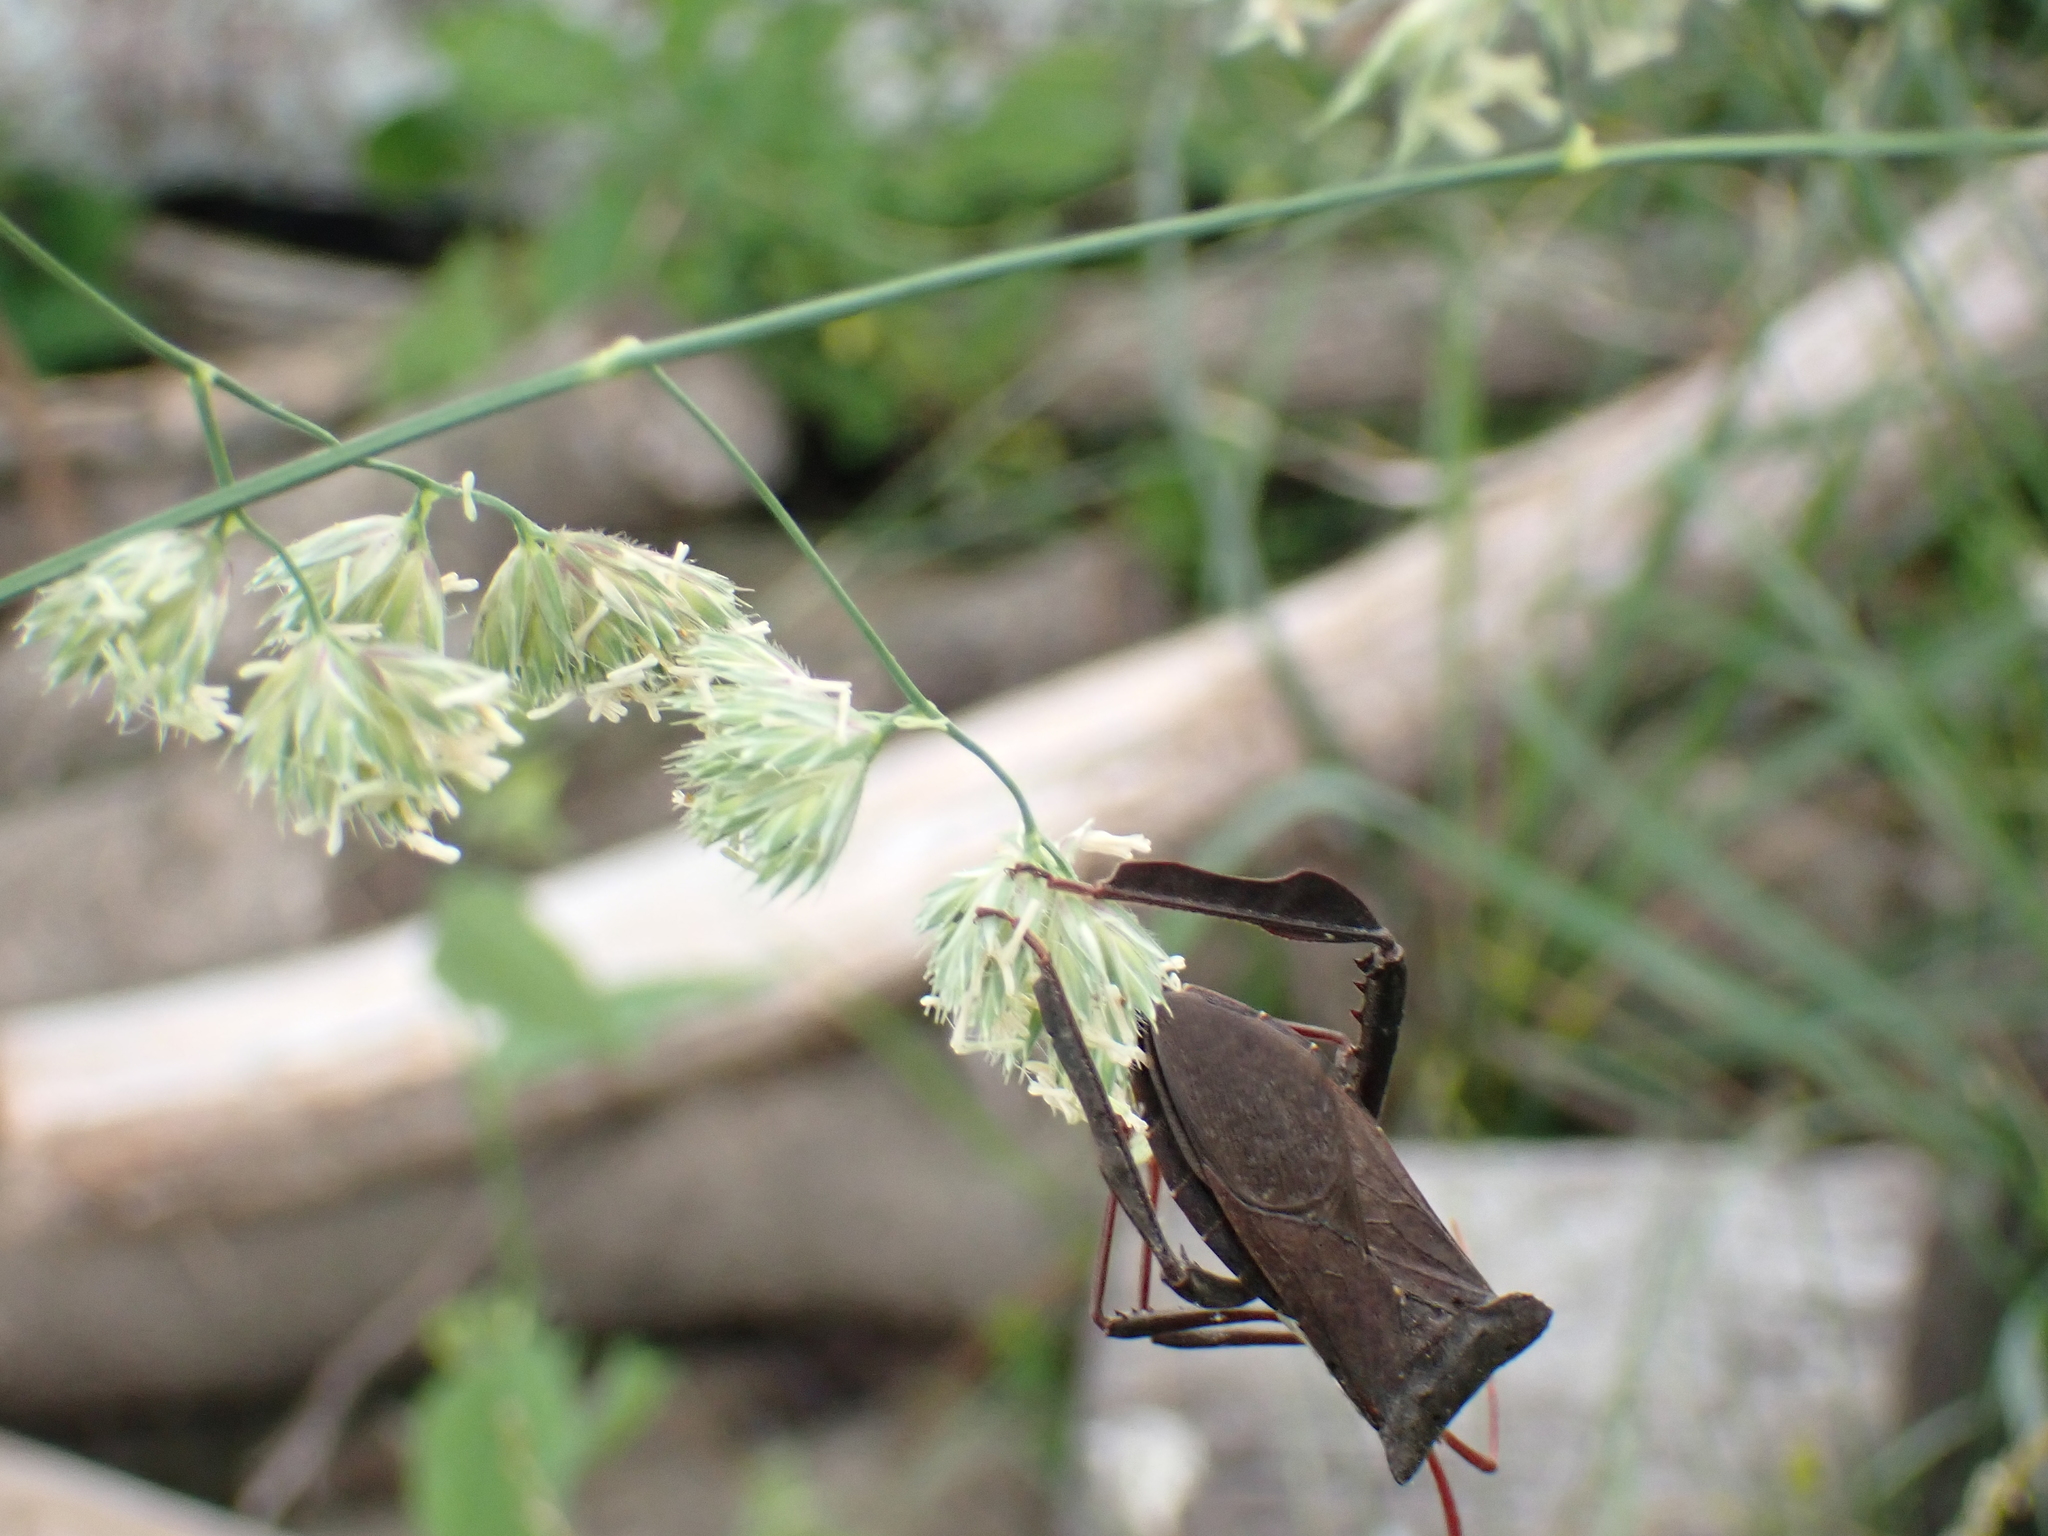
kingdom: Animalia
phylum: Arthropoda
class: Insecta
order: Hemiptera
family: Coreidae
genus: Acanthocephala
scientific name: Acanthocephala declivis
